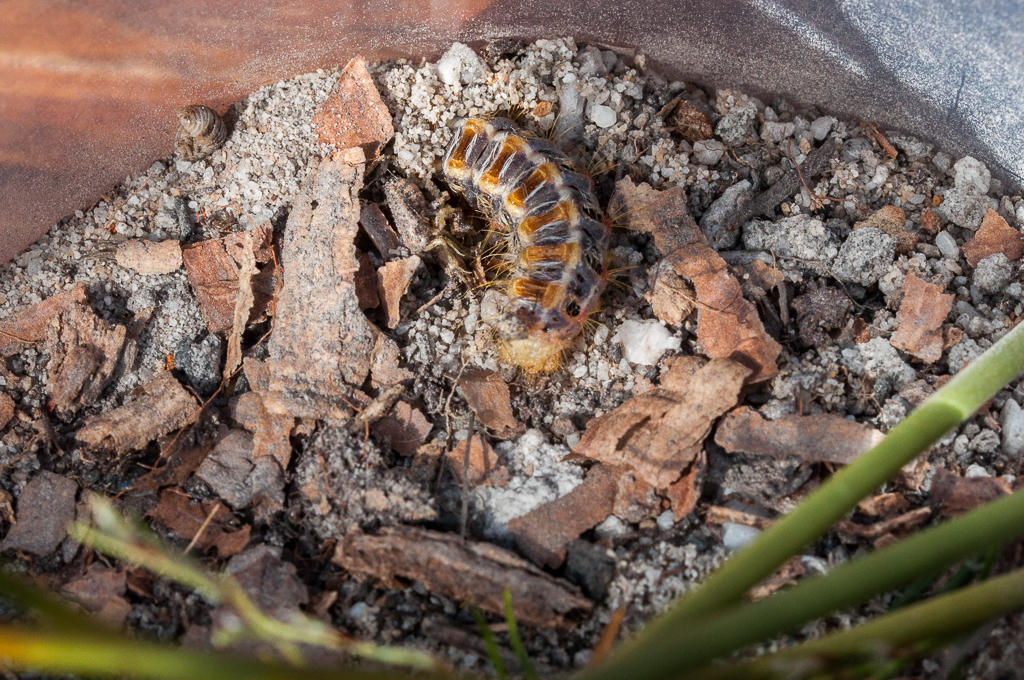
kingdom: Animalia
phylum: Arthropoda
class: Insecta
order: Lepidoptera
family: Somabrachyidae
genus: Psycharium
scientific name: Psycharium pellucens
